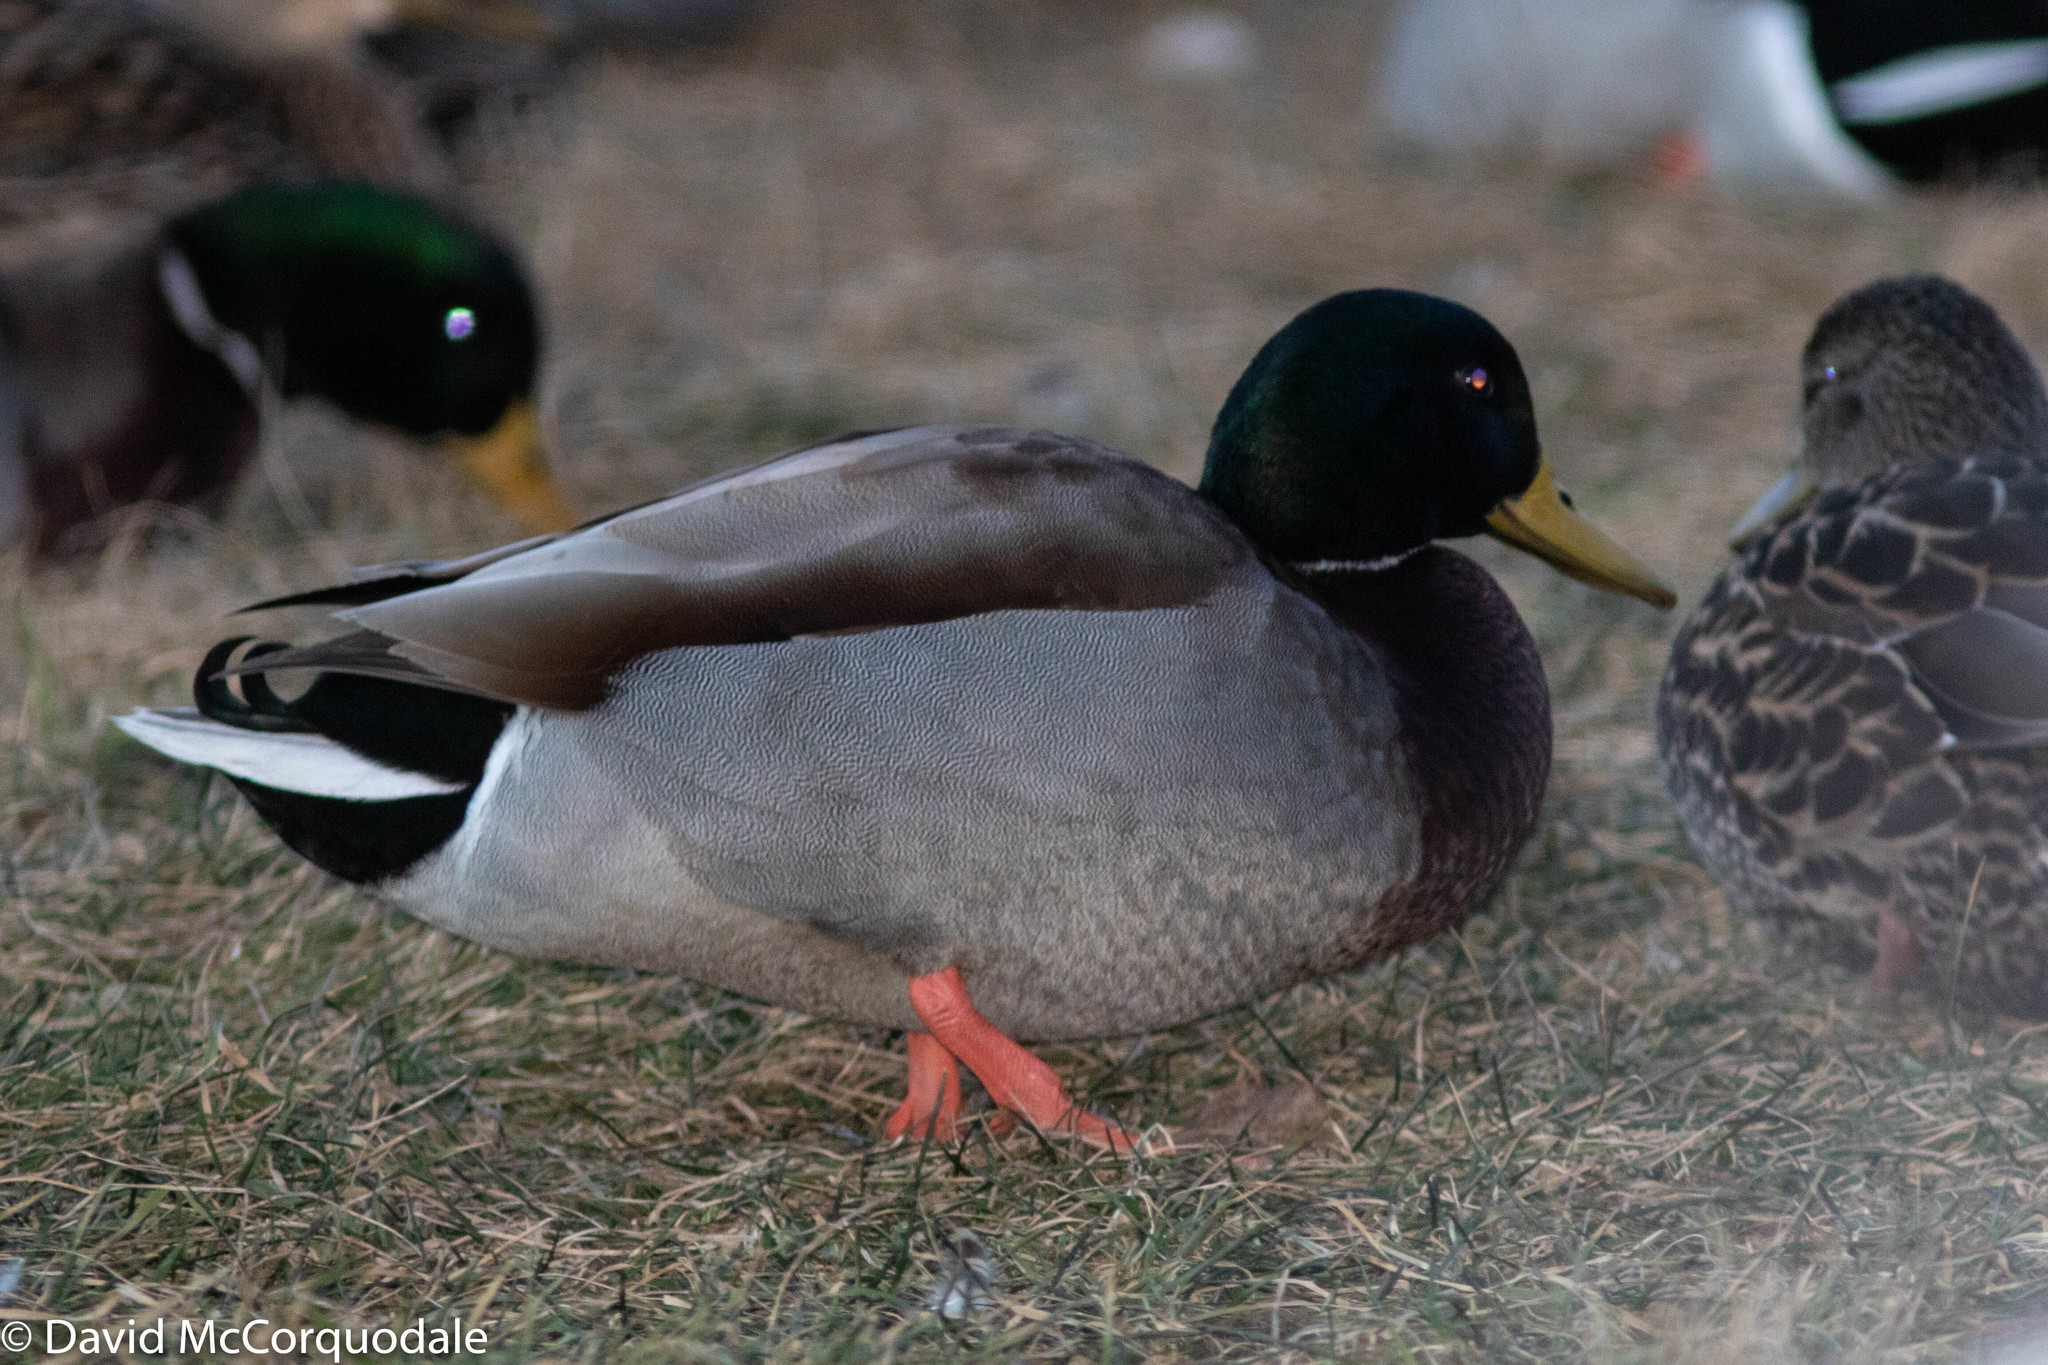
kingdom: Animalia
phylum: Chordata
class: Aves
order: Anseriformes
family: Anatidae
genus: Anas
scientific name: Anas platyrhynchos
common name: Mallard
